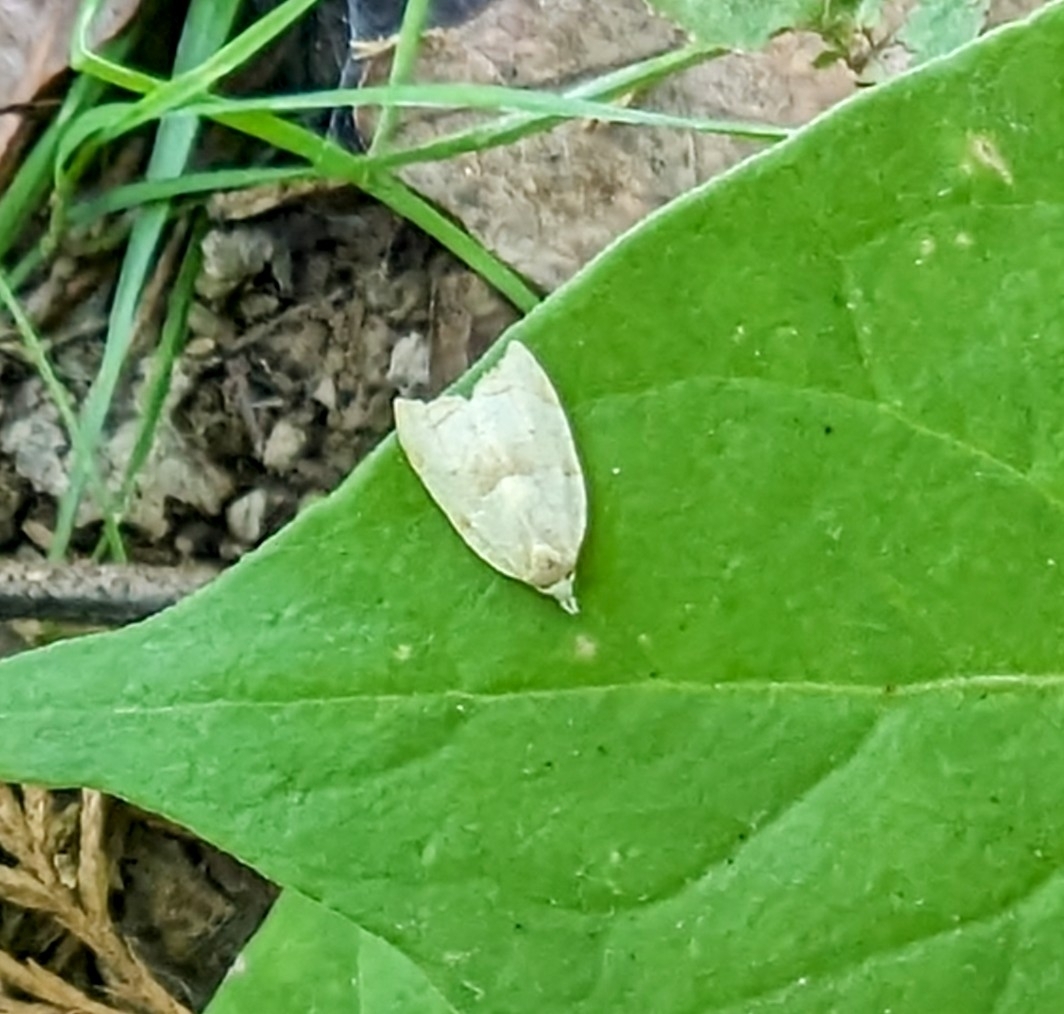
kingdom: Animalia
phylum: Arthropoda
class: Insecta
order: Lepidoptera
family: Tortricidae
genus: Coelostathma
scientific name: Coelostathma discopunctana
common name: Batman moth
